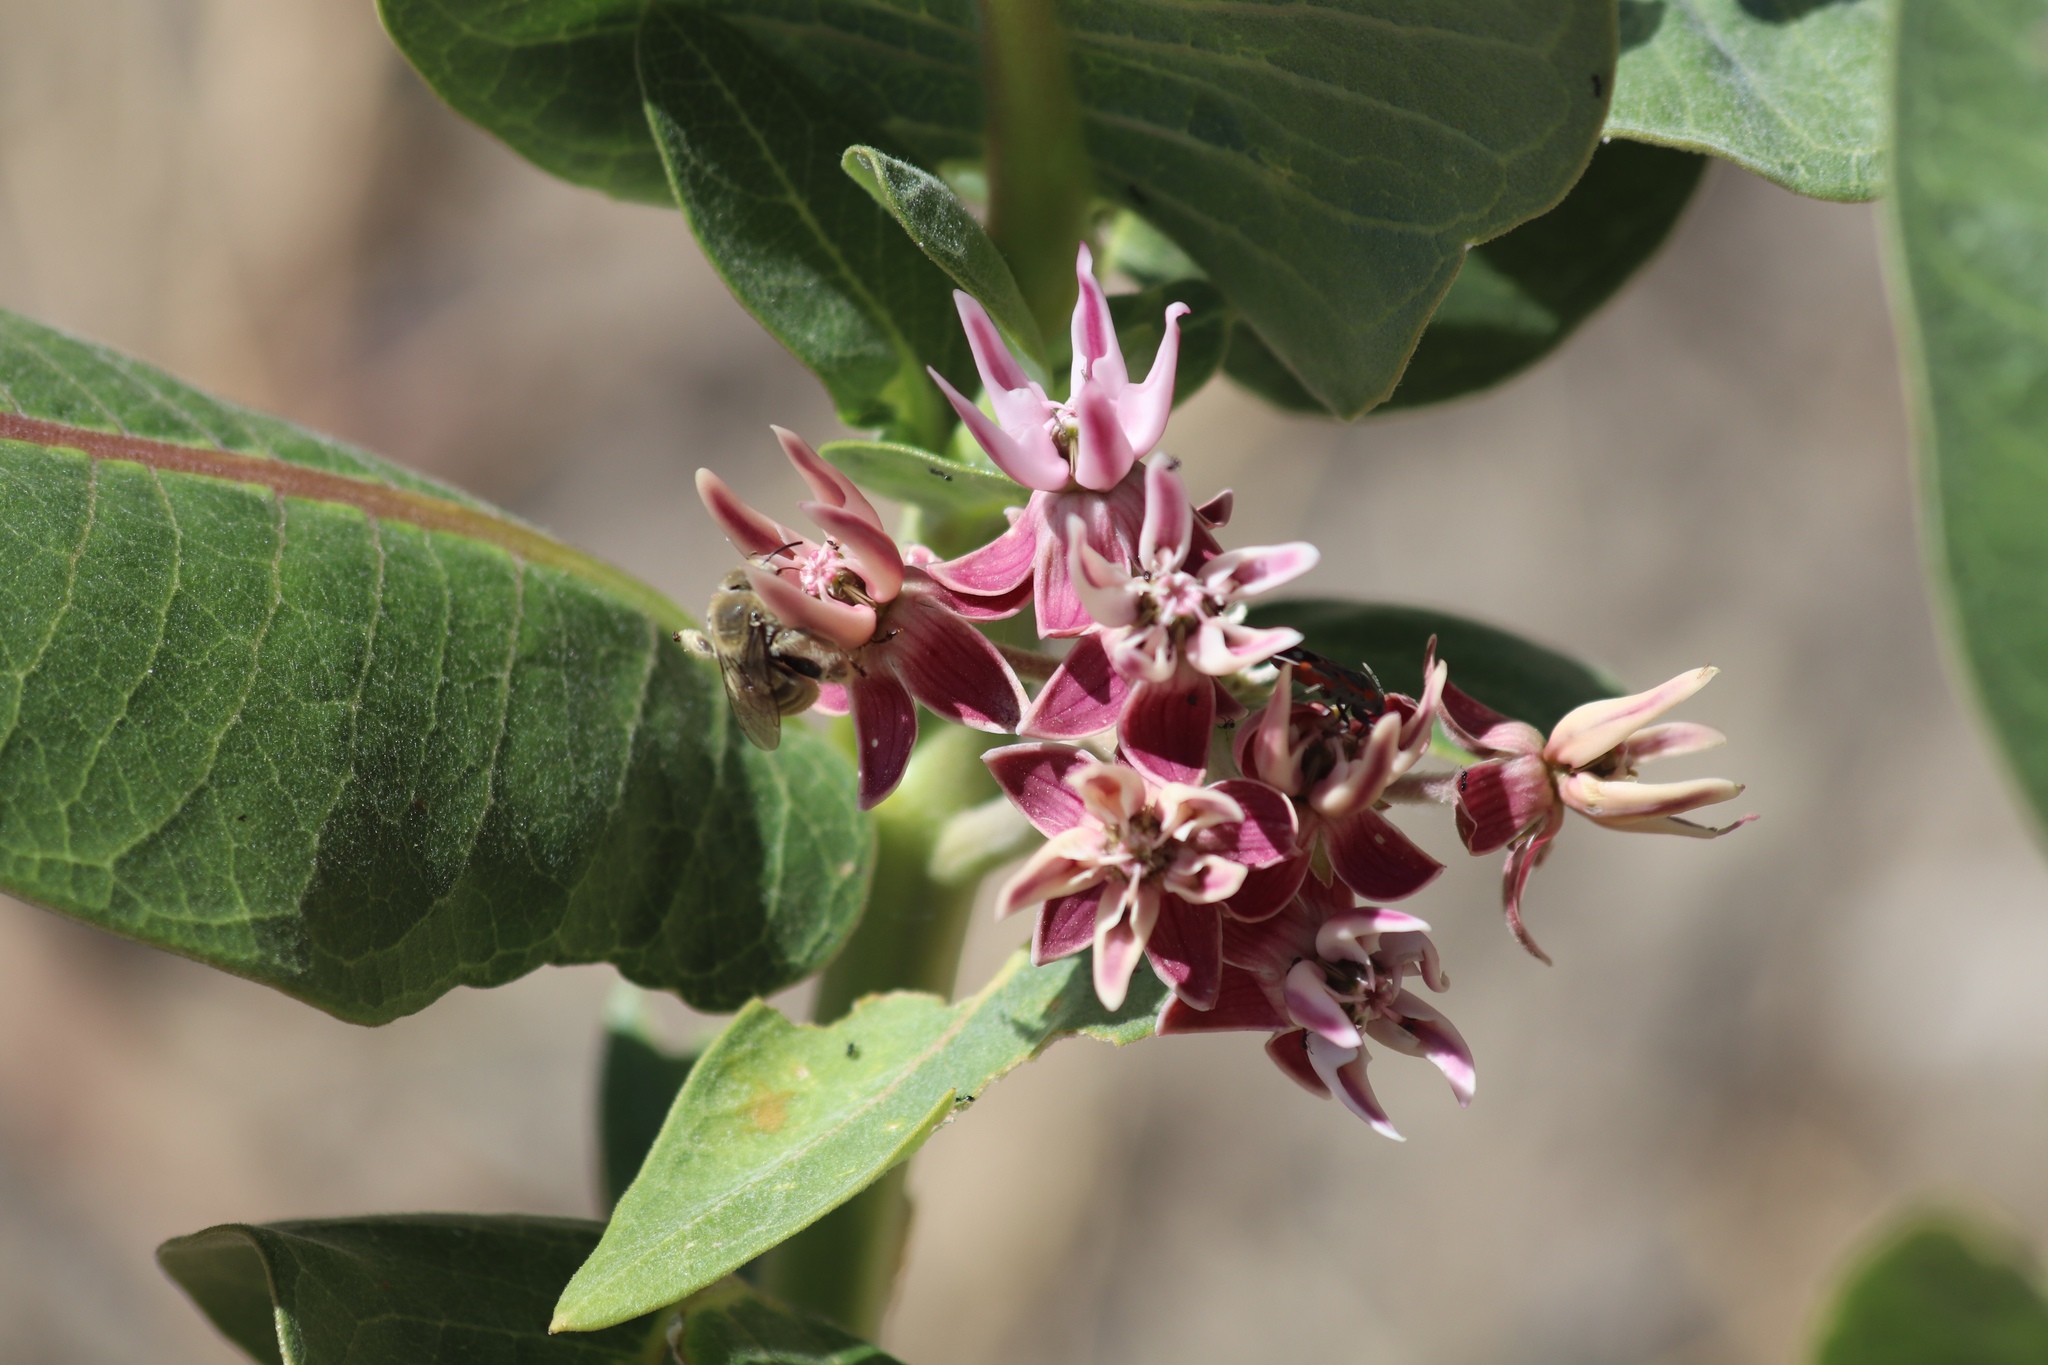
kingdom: Plantae
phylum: Tracheophyta
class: Magnoliopsida
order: Gentianales
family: Apocynaceae
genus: Asclepias
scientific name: Asclepias speciosa
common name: Showy milkweed
